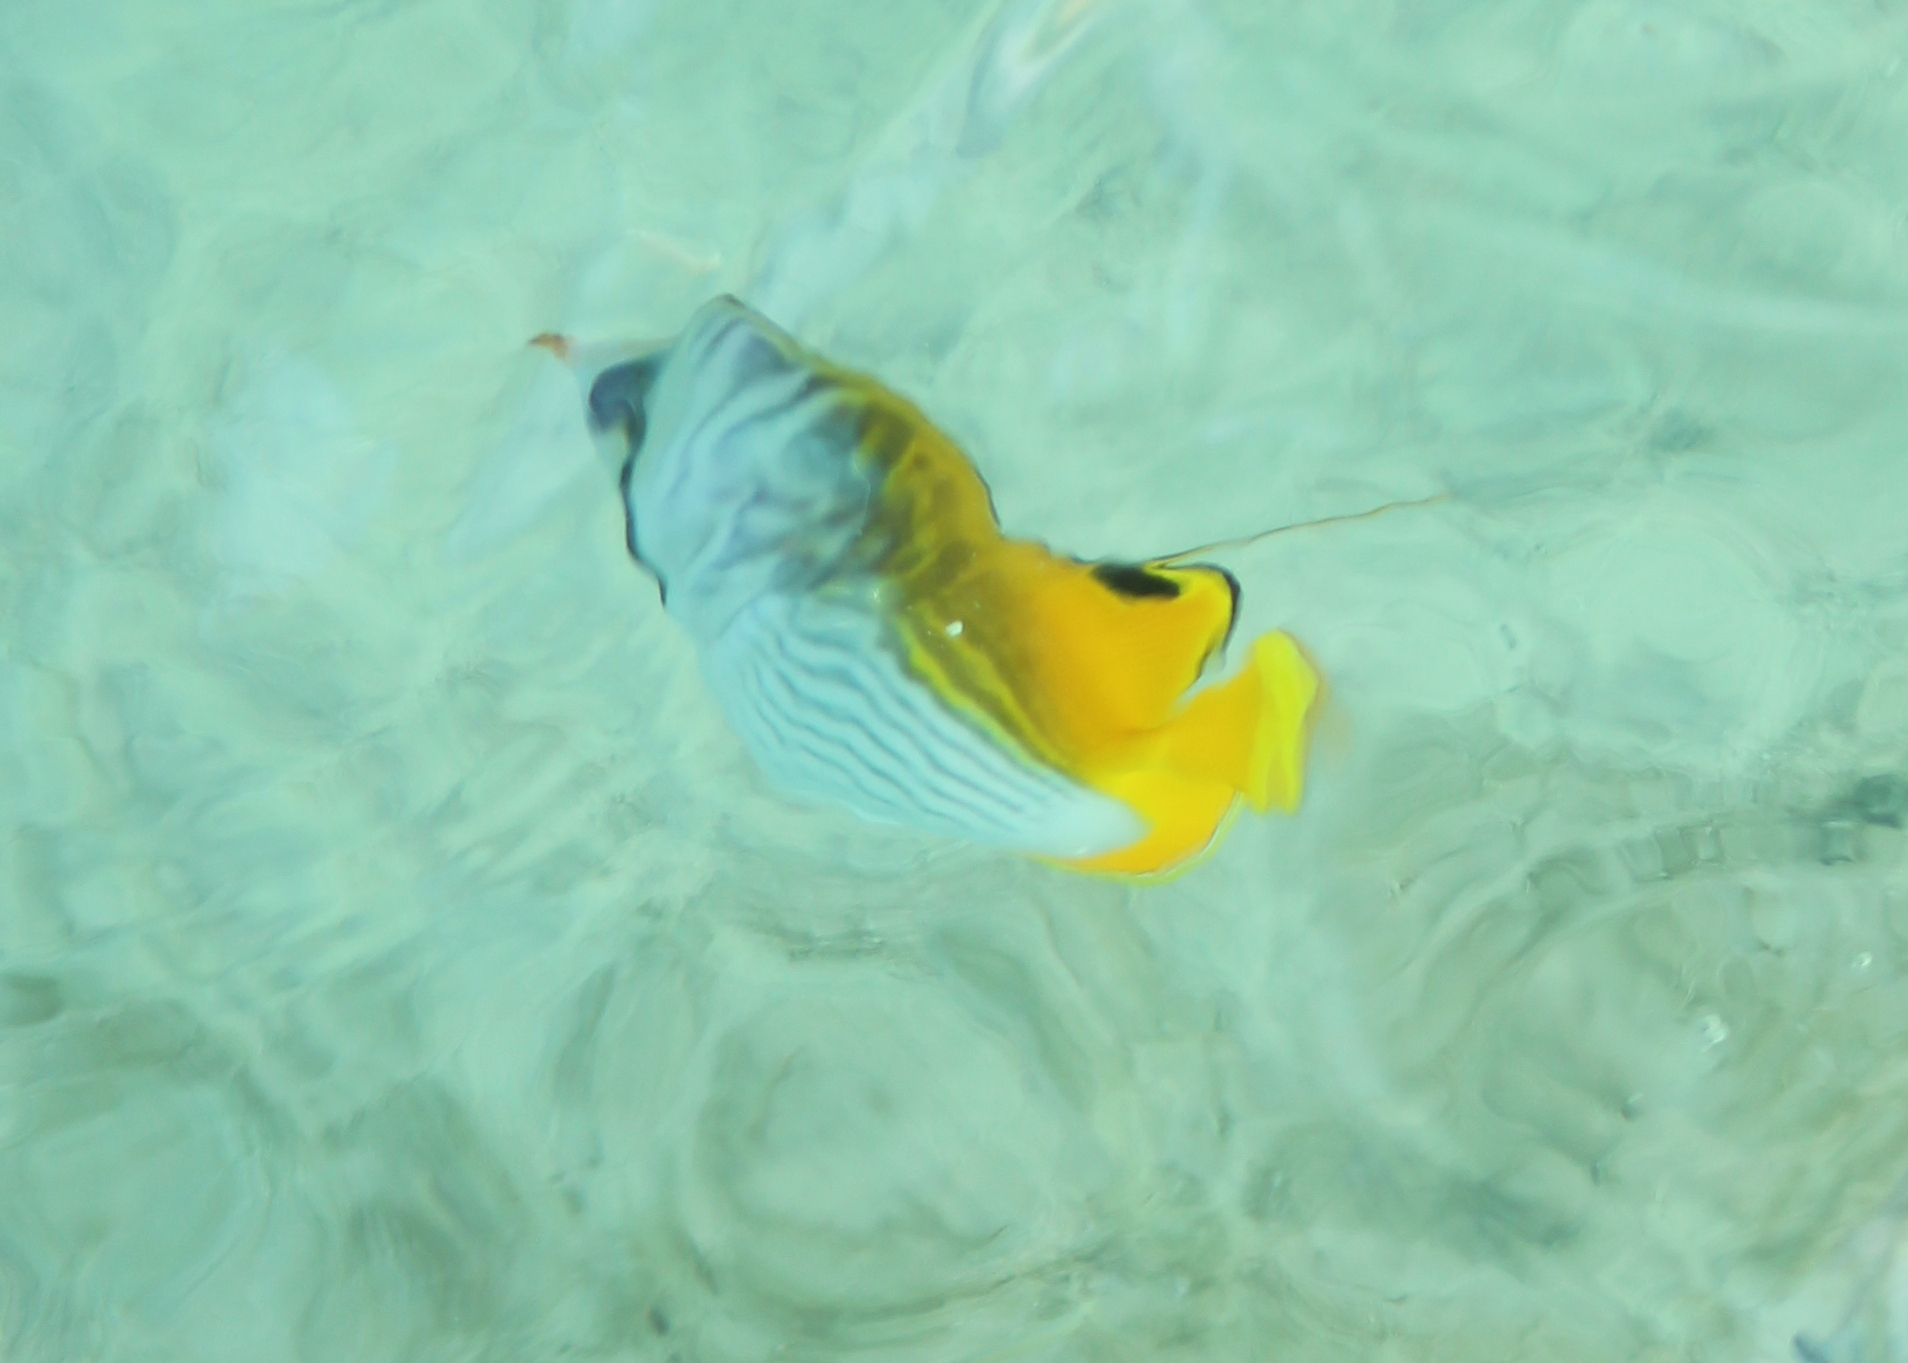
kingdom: Animalia
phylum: Chordata
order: Perciformes
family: Chaetodontidae
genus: Chaetodon
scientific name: Chaetodon auriga
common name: Threadfin butterflyfish
